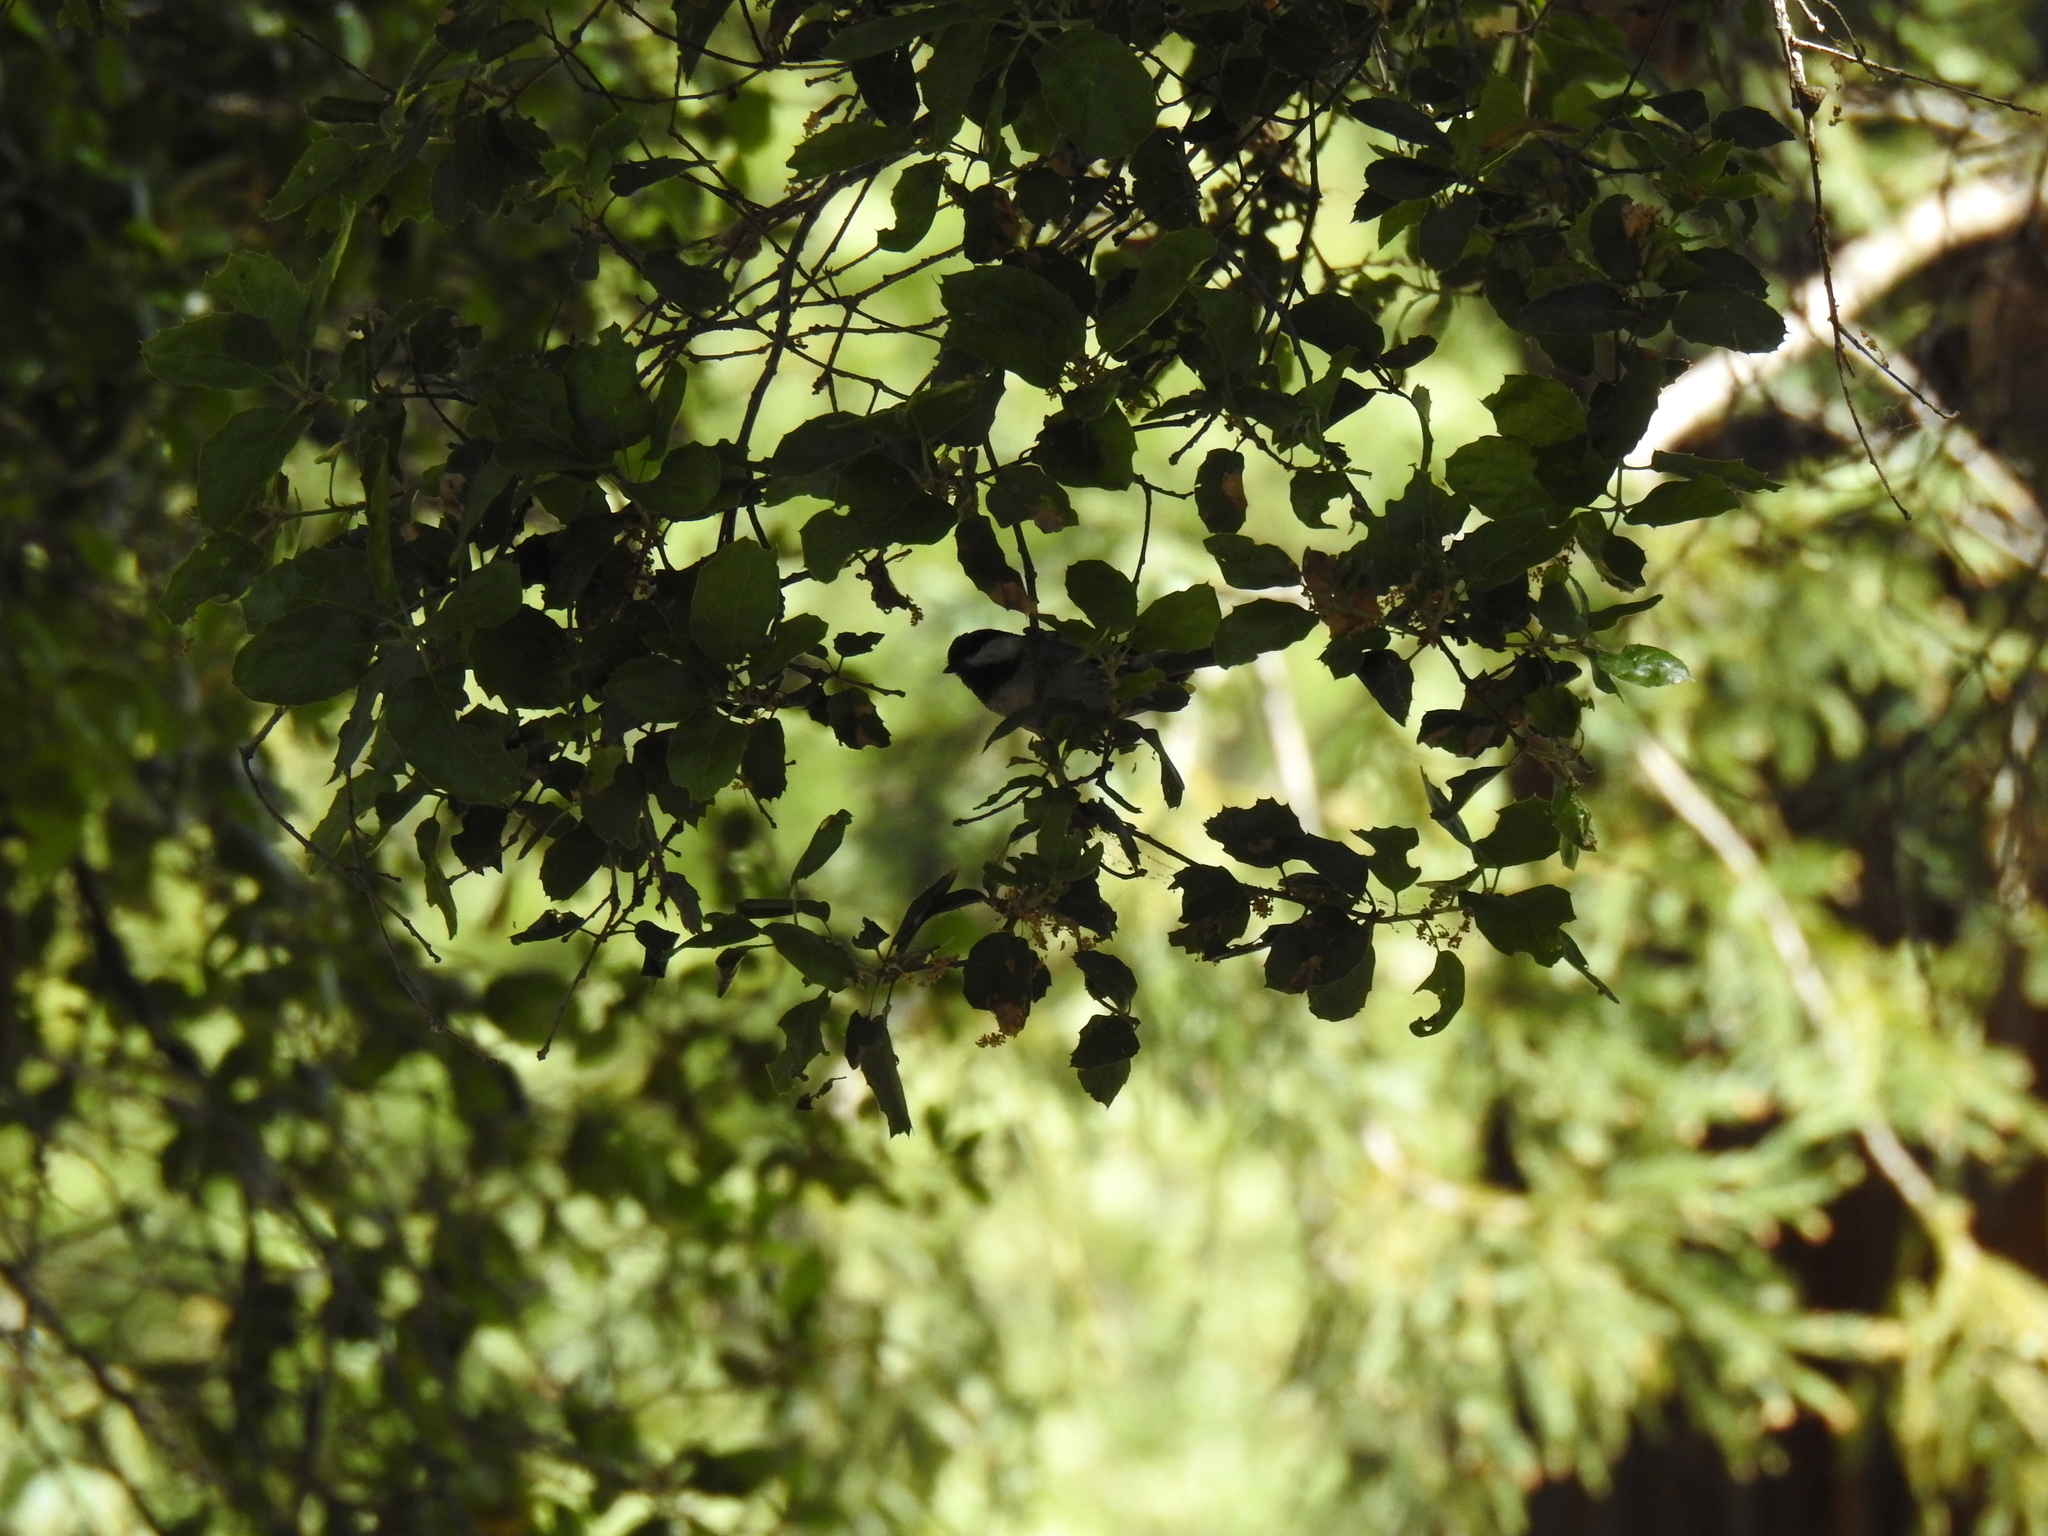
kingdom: Animalia
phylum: Chordata
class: Aves
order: Passeriformes
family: Paridae
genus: Poecile
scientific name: Poecile rufescens
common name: Chestnut-backed chickadee
